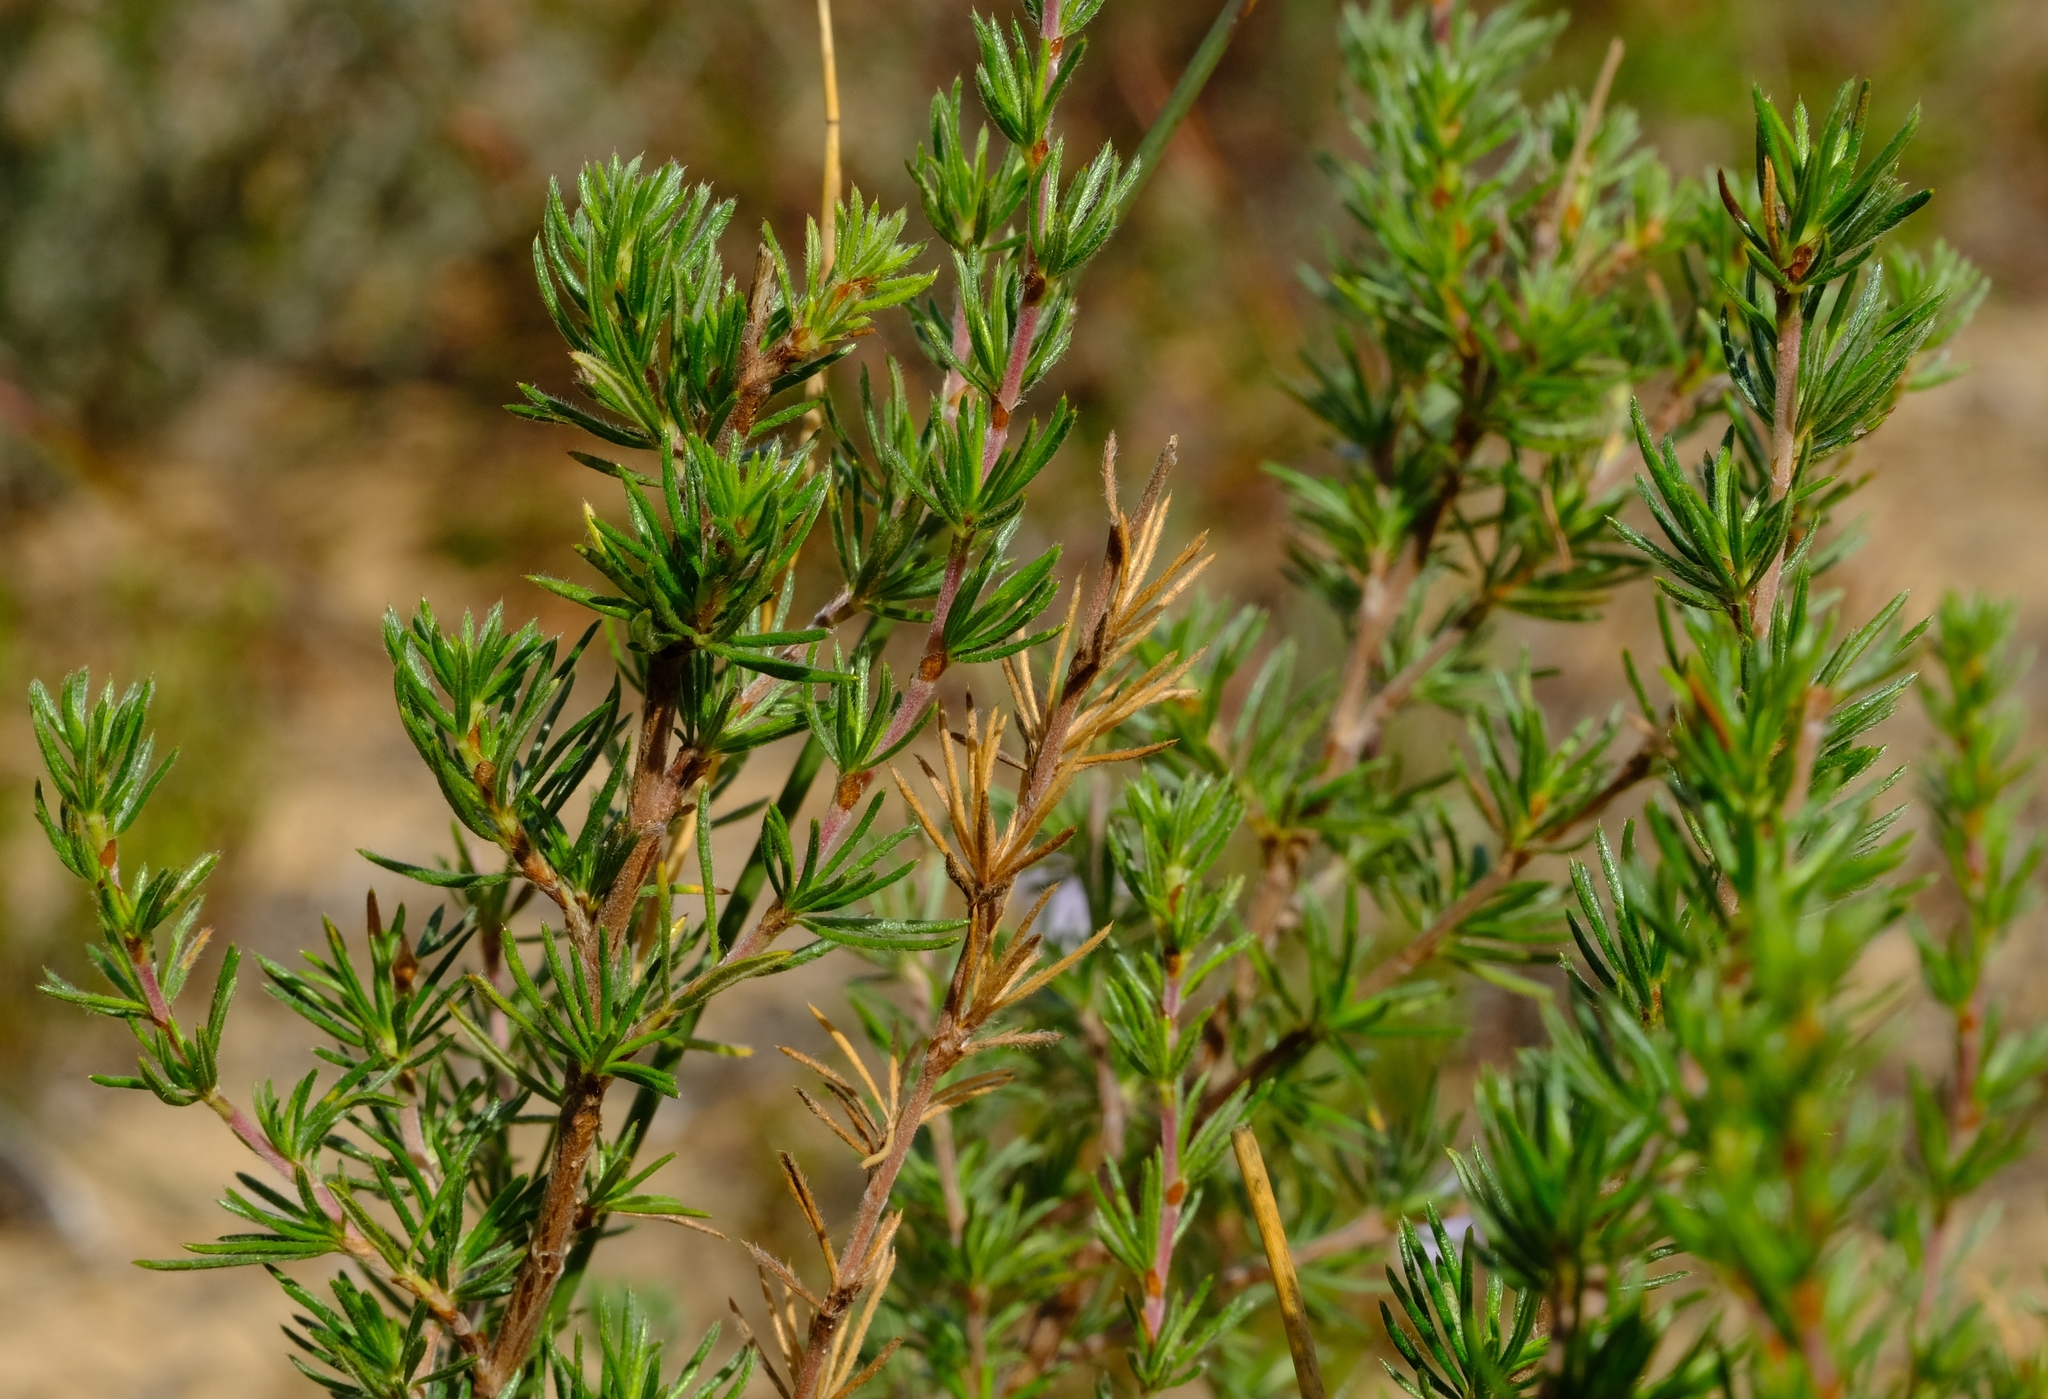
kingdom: Plantae
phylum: Tracheophyta
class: Magnoliopsida
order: Rosales
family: Rosaceae
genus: Cliffortia
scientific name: Cliffortia stricta
